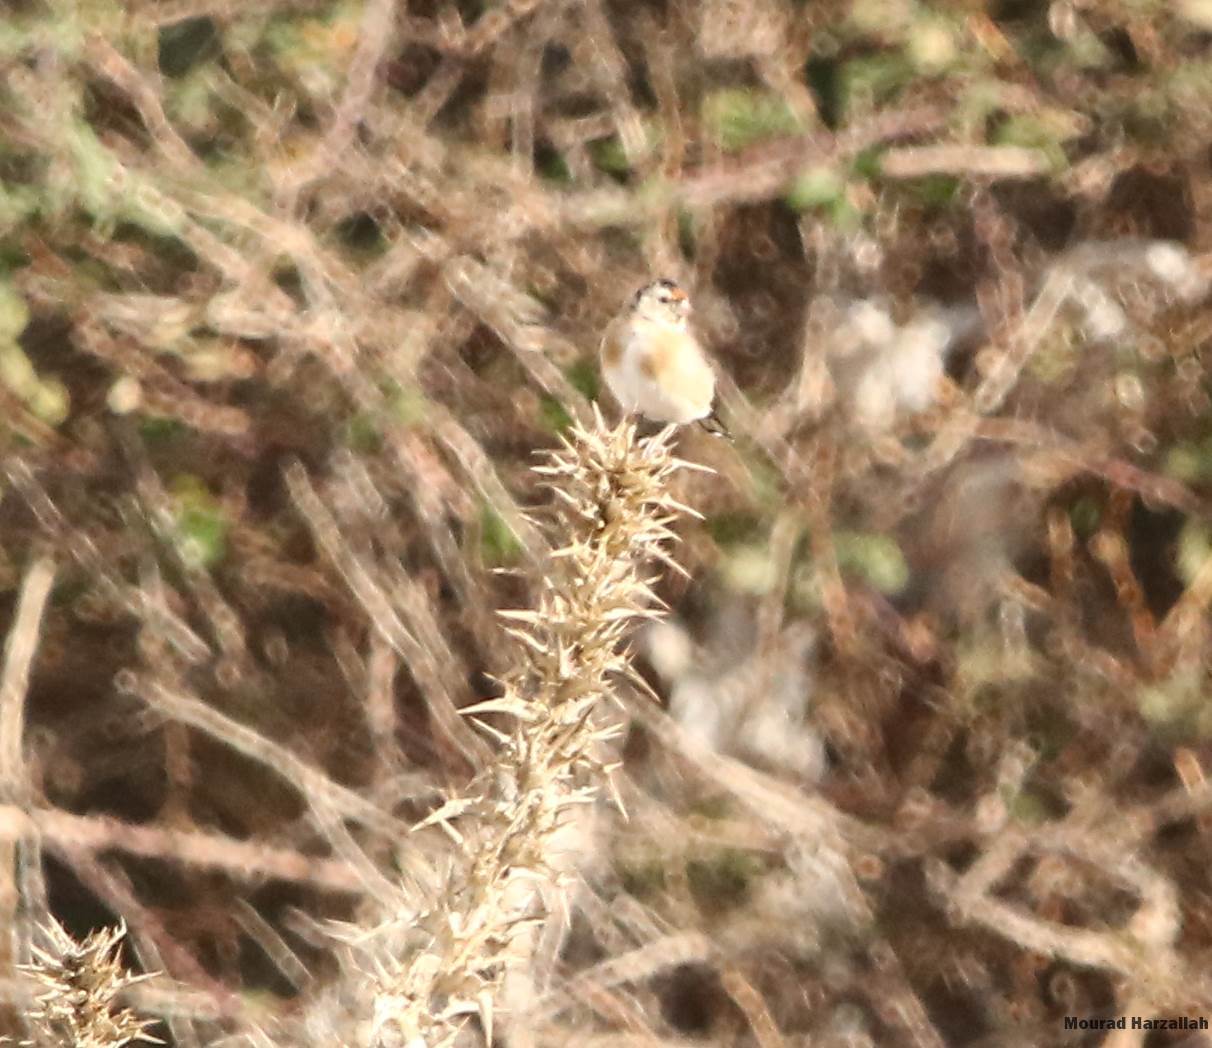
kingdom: Animalia
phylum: Chordata
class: Aves
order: Passeriformes
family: Fringillidae
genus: Carduelis
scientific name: Carduelis carduelis
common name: European goldfinch
